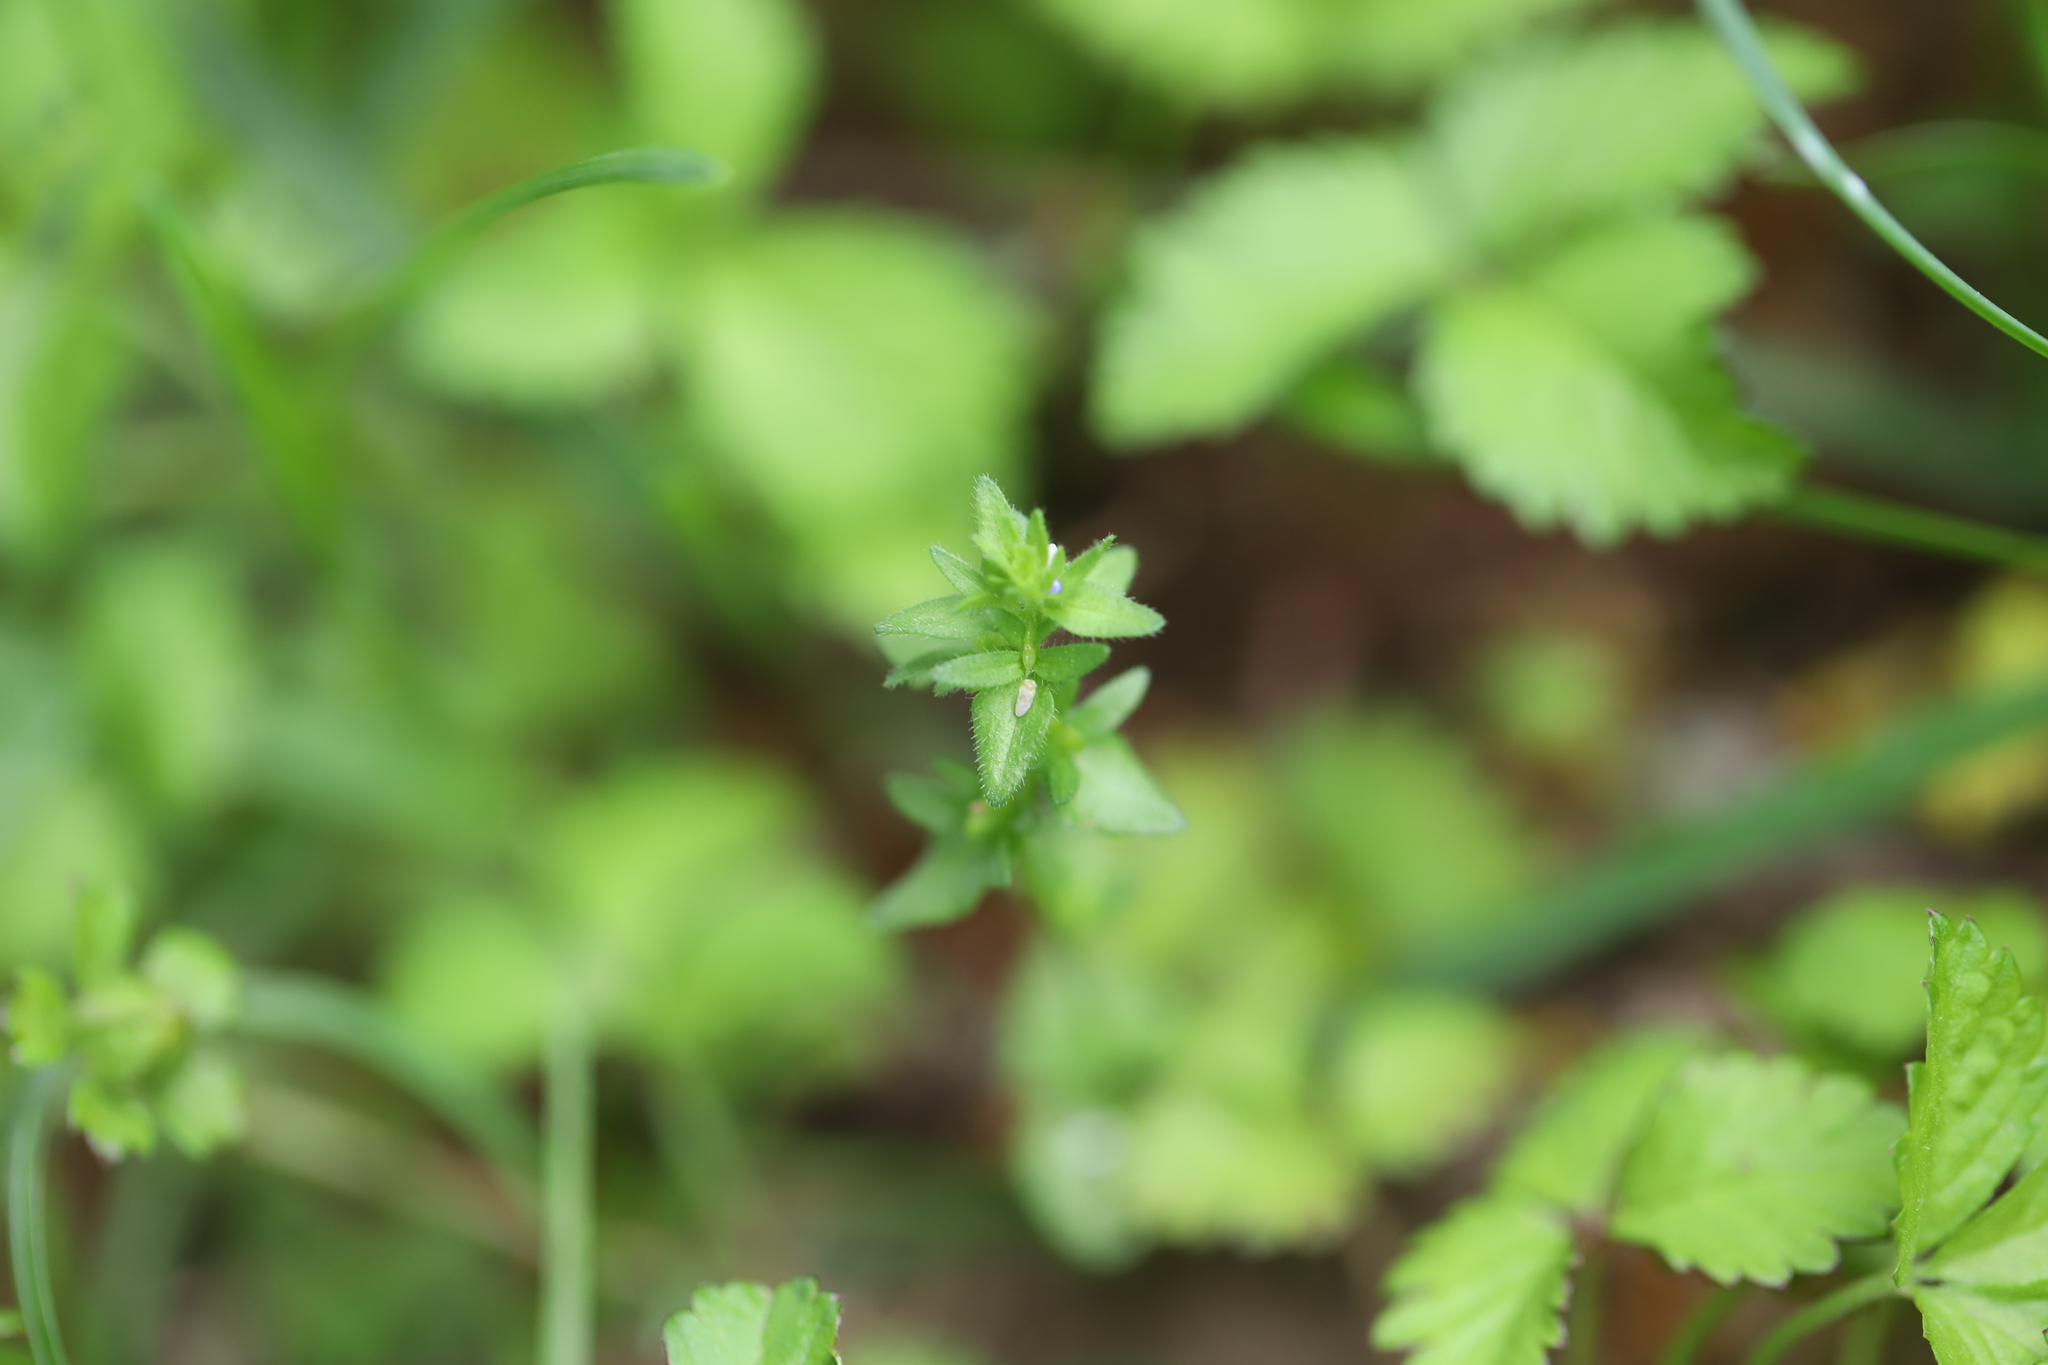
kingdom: Plantae
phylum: Tracheophyta
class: Magnoliopsida
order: Lamiales
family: Plantaginaceae
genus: Veronica
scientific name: Veronica arvensis
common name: Corn speedwell
